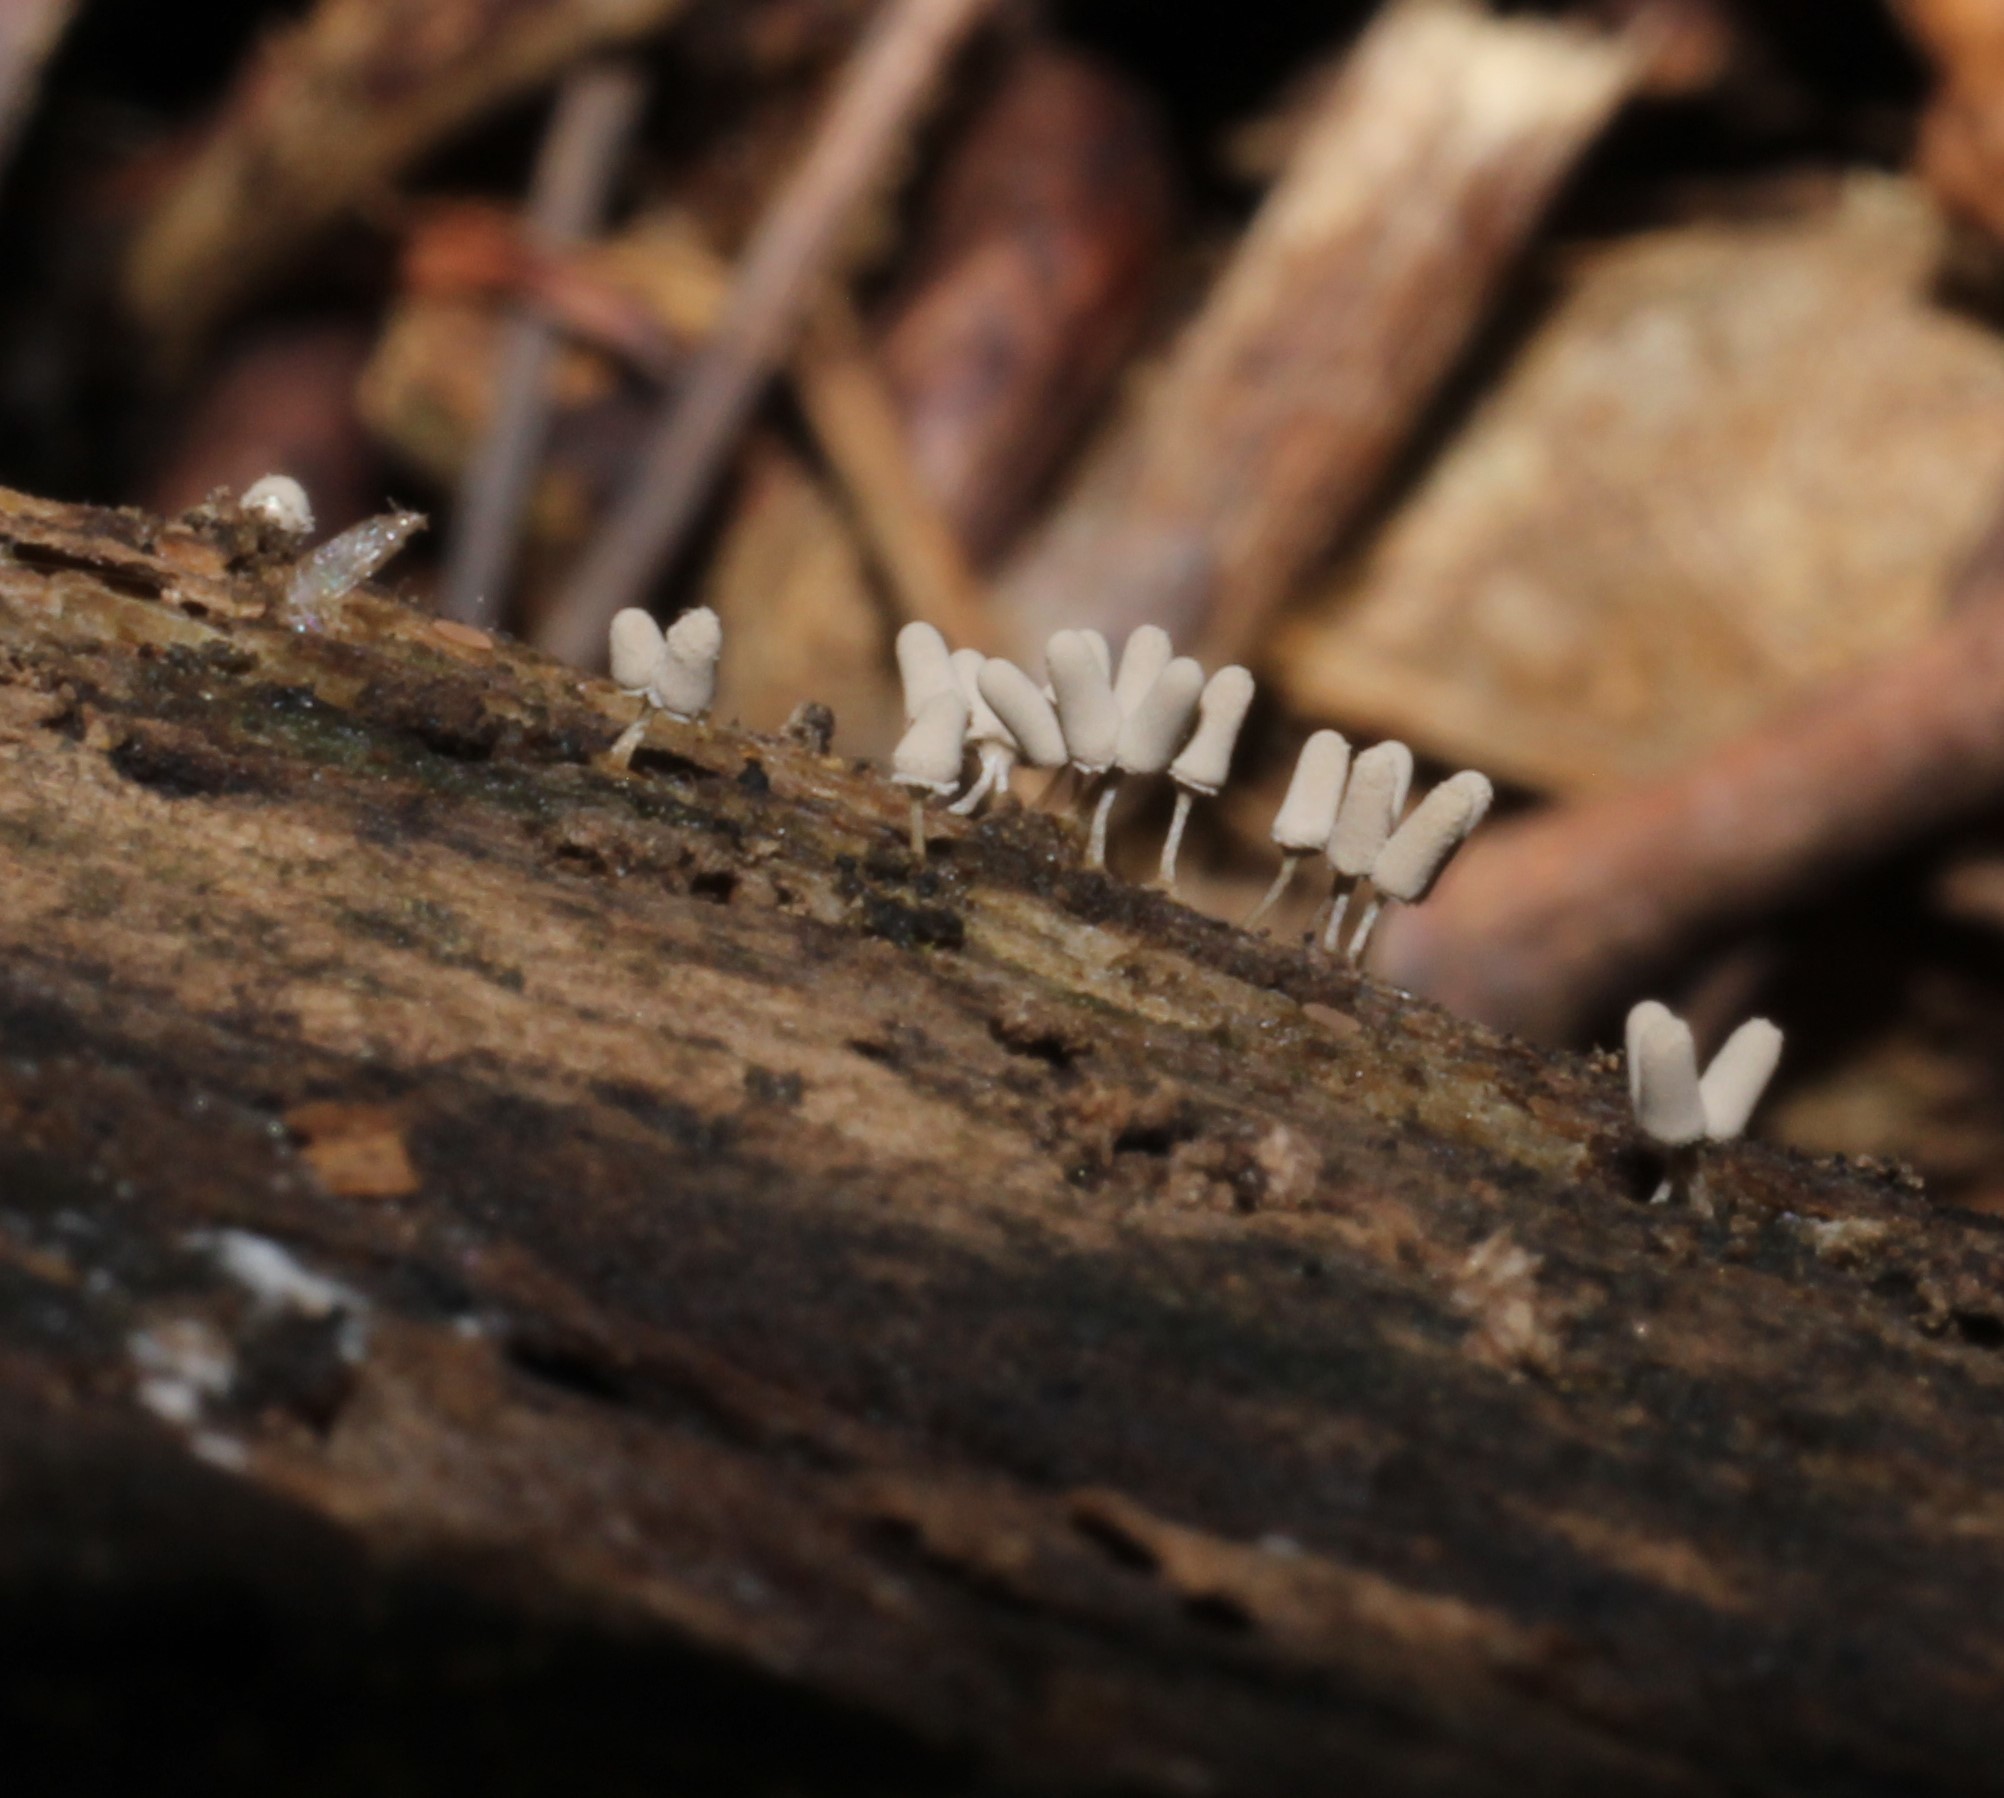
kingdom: Protozoa
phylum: Mycetozoa
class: Myxomycetes
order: Trichiales
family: Arcyriaceae
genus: Arcyria
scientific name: Arcyria cinerea
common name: White carnival candy slime mold
